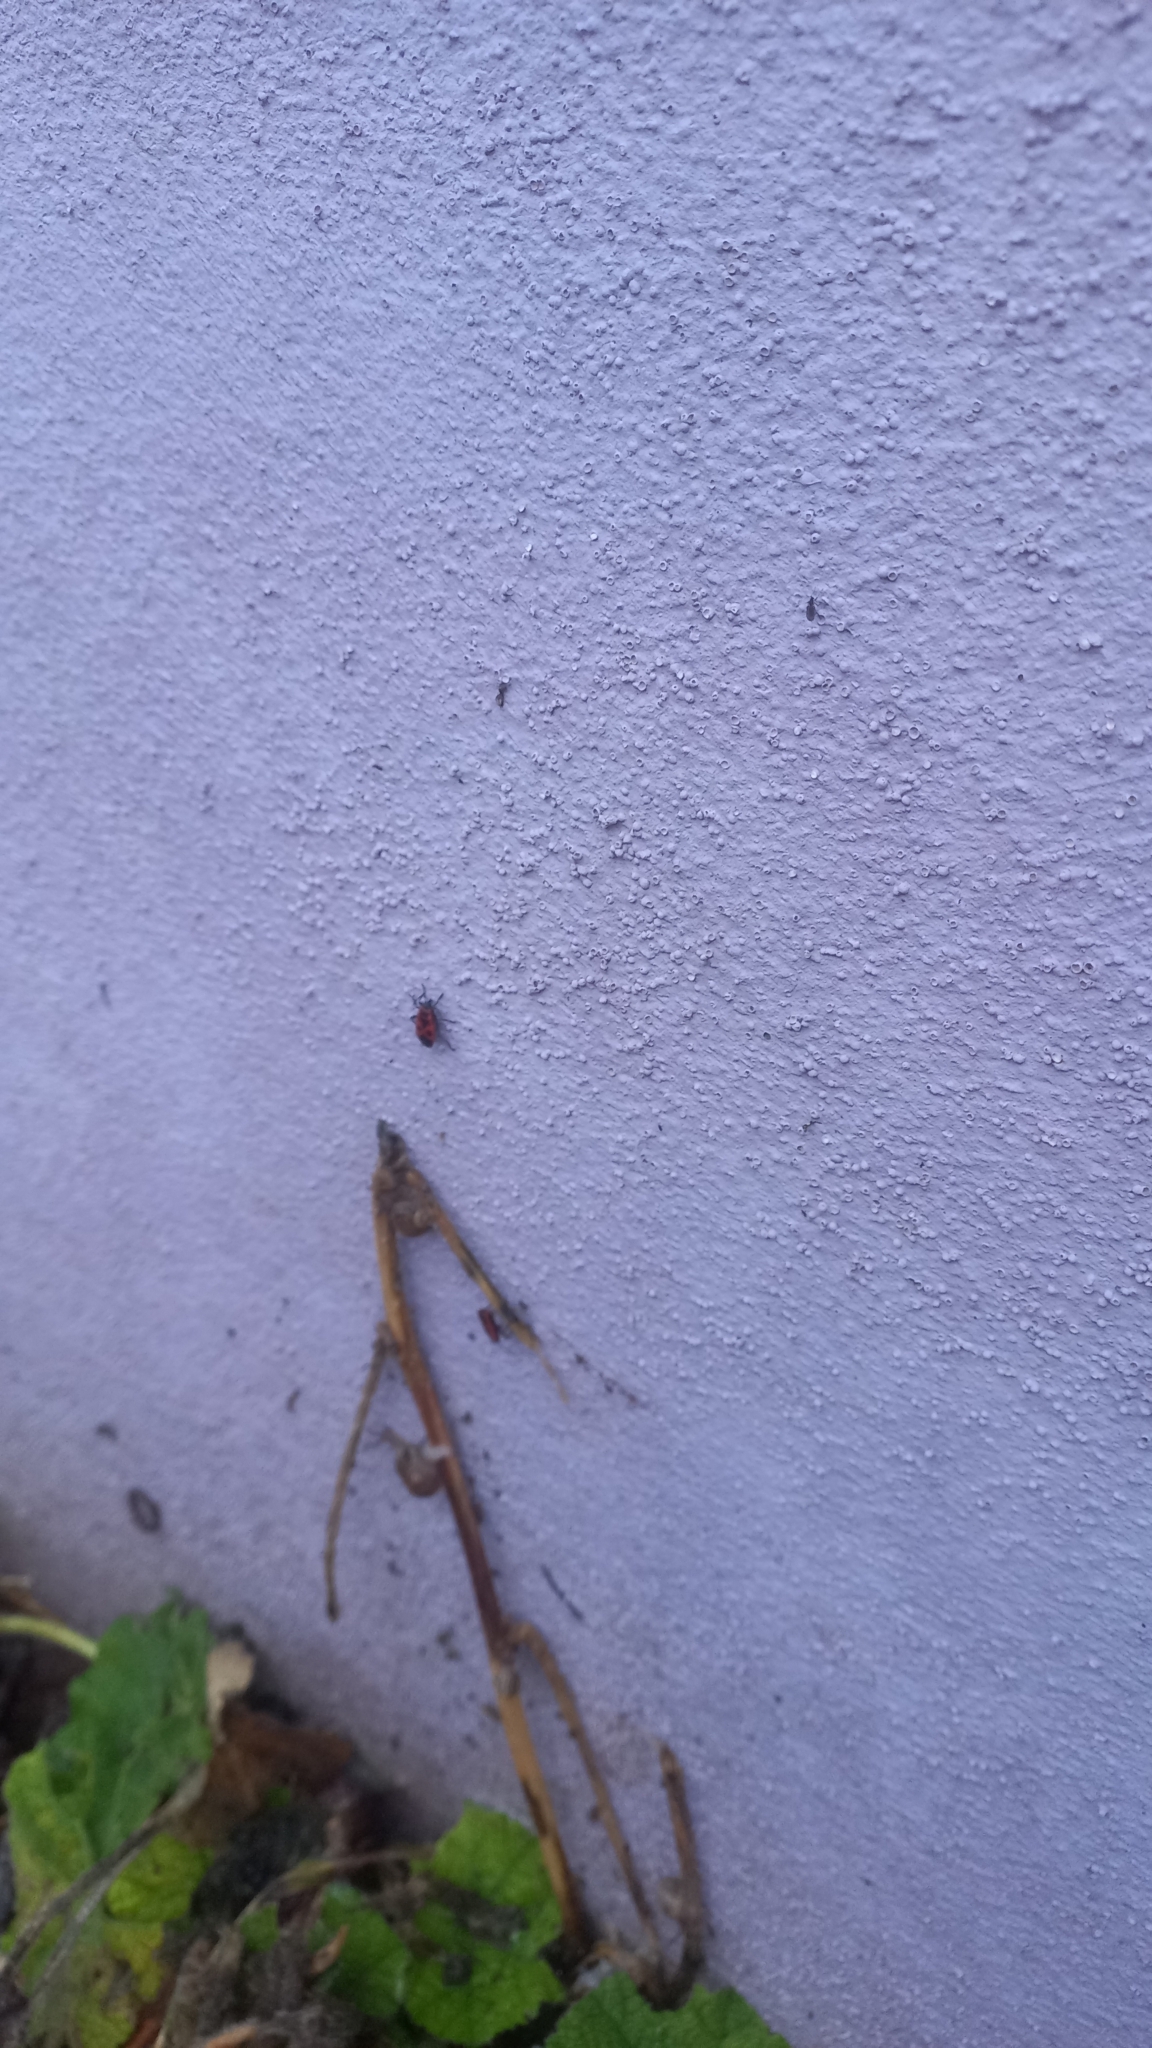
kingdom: Animalia
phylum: Arthropoda
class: Insecta
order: Hemiptera
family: Pyrrhocoridae
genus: Pyrrhocoris
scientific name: Pyrrhocoris apterus
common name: Firebug
